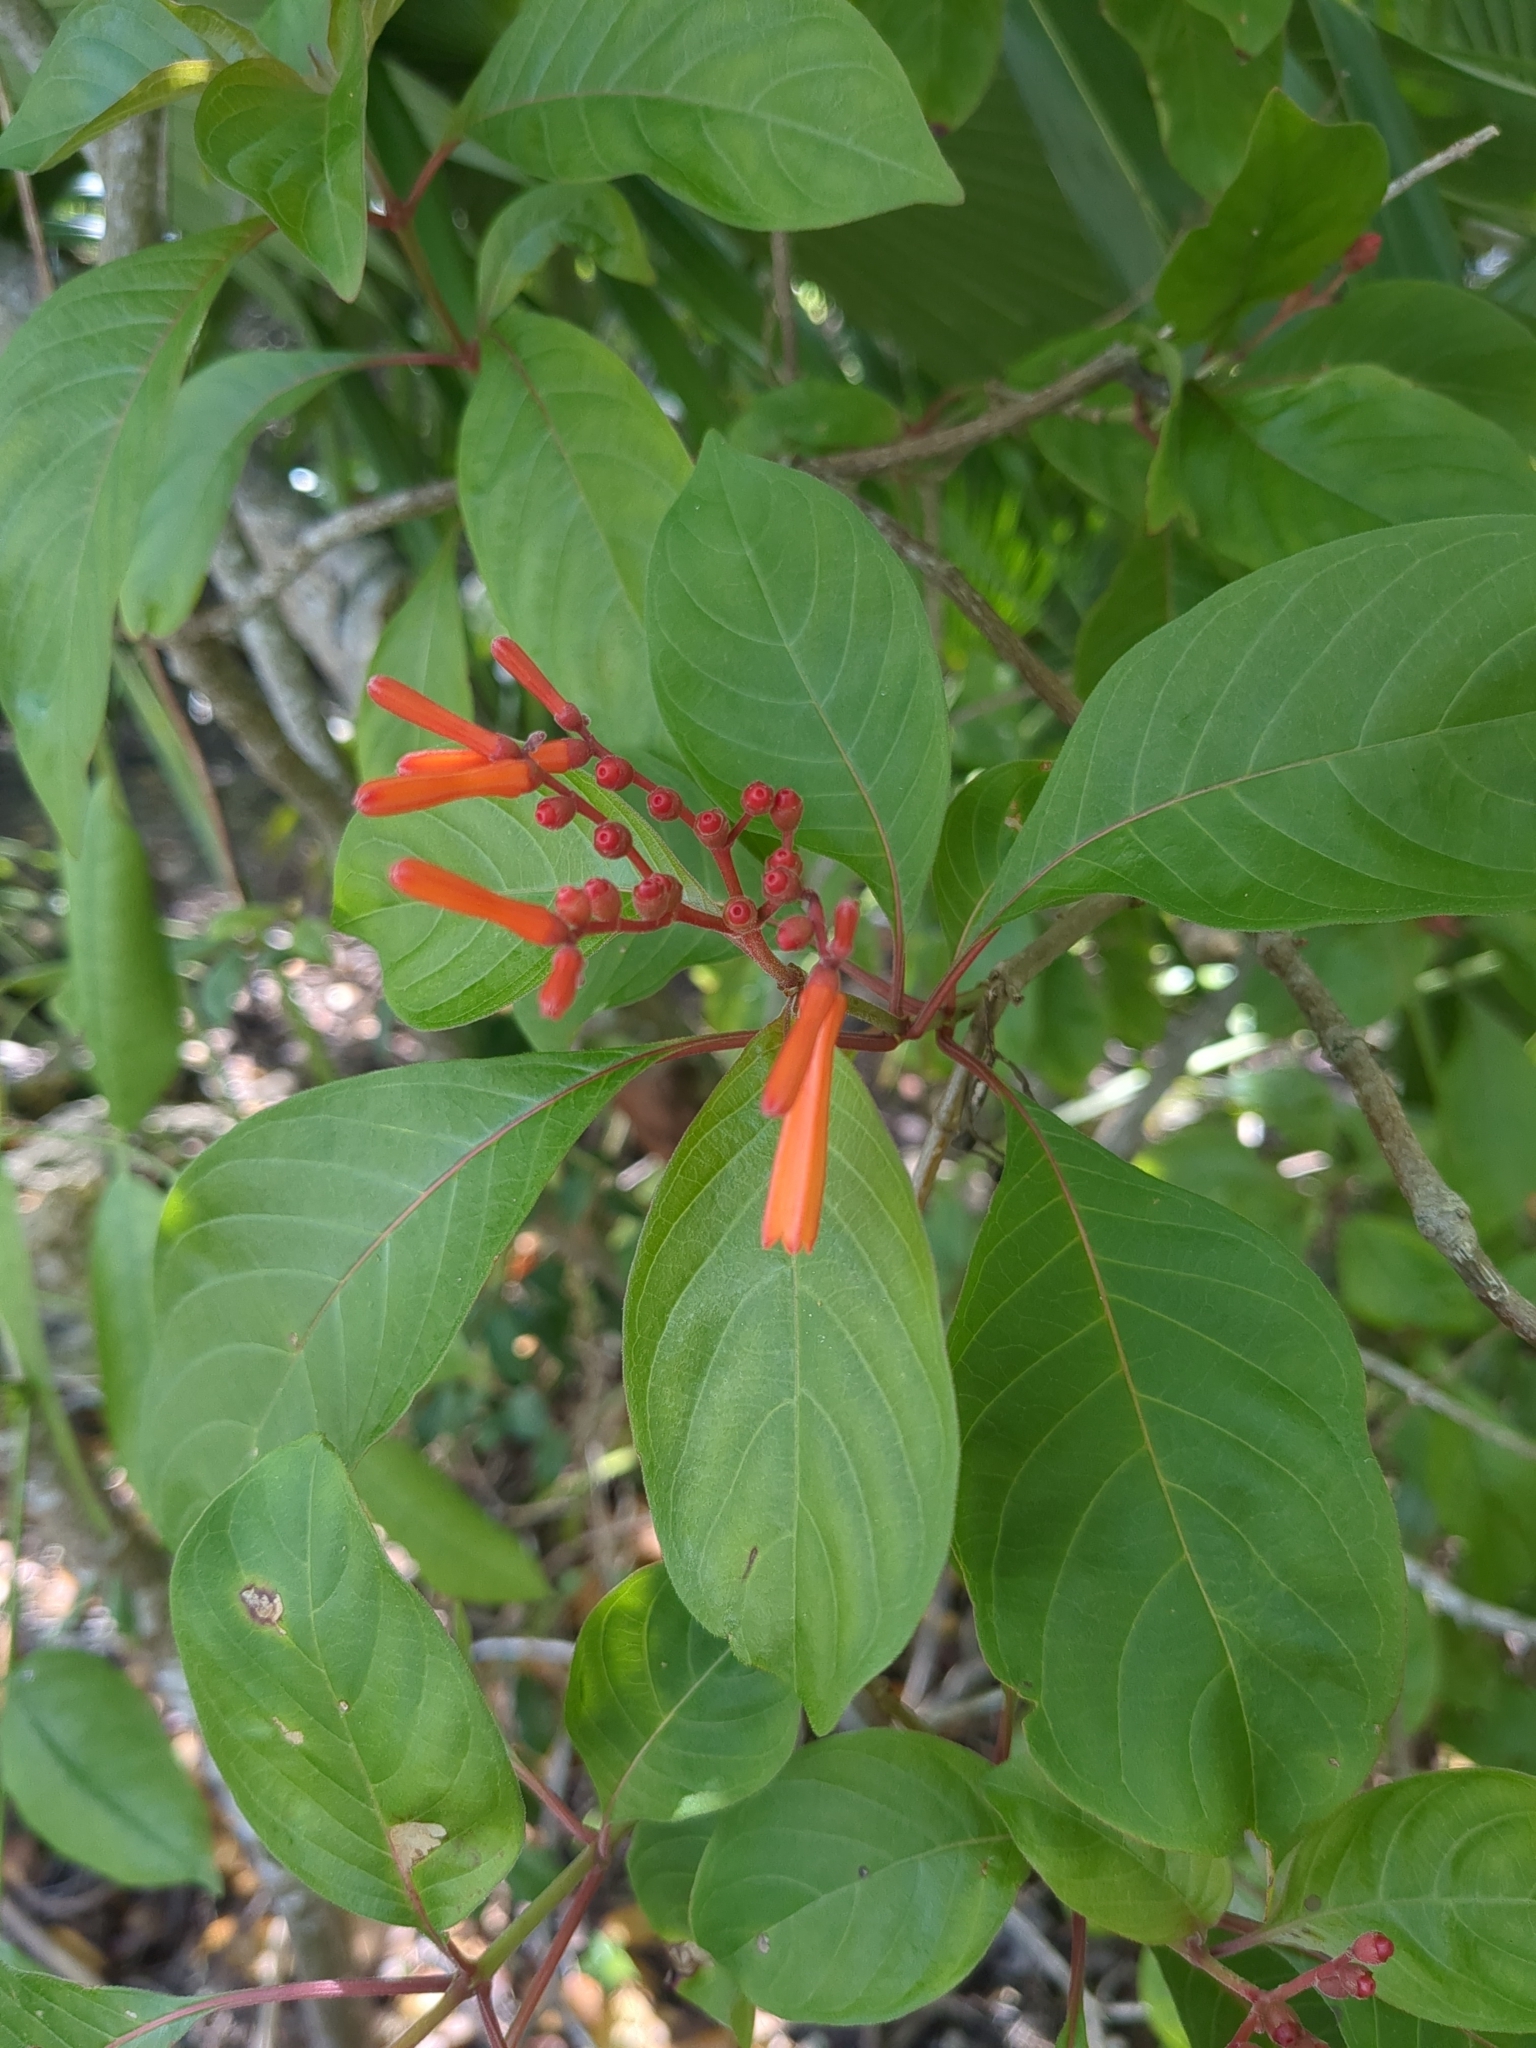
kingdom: Plantae
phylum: Tracheophyta
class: Magnoliopsida
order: Gentianales
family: Rubiaceae
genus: Hamelia
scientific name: Hamelia patens
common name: Redhead
